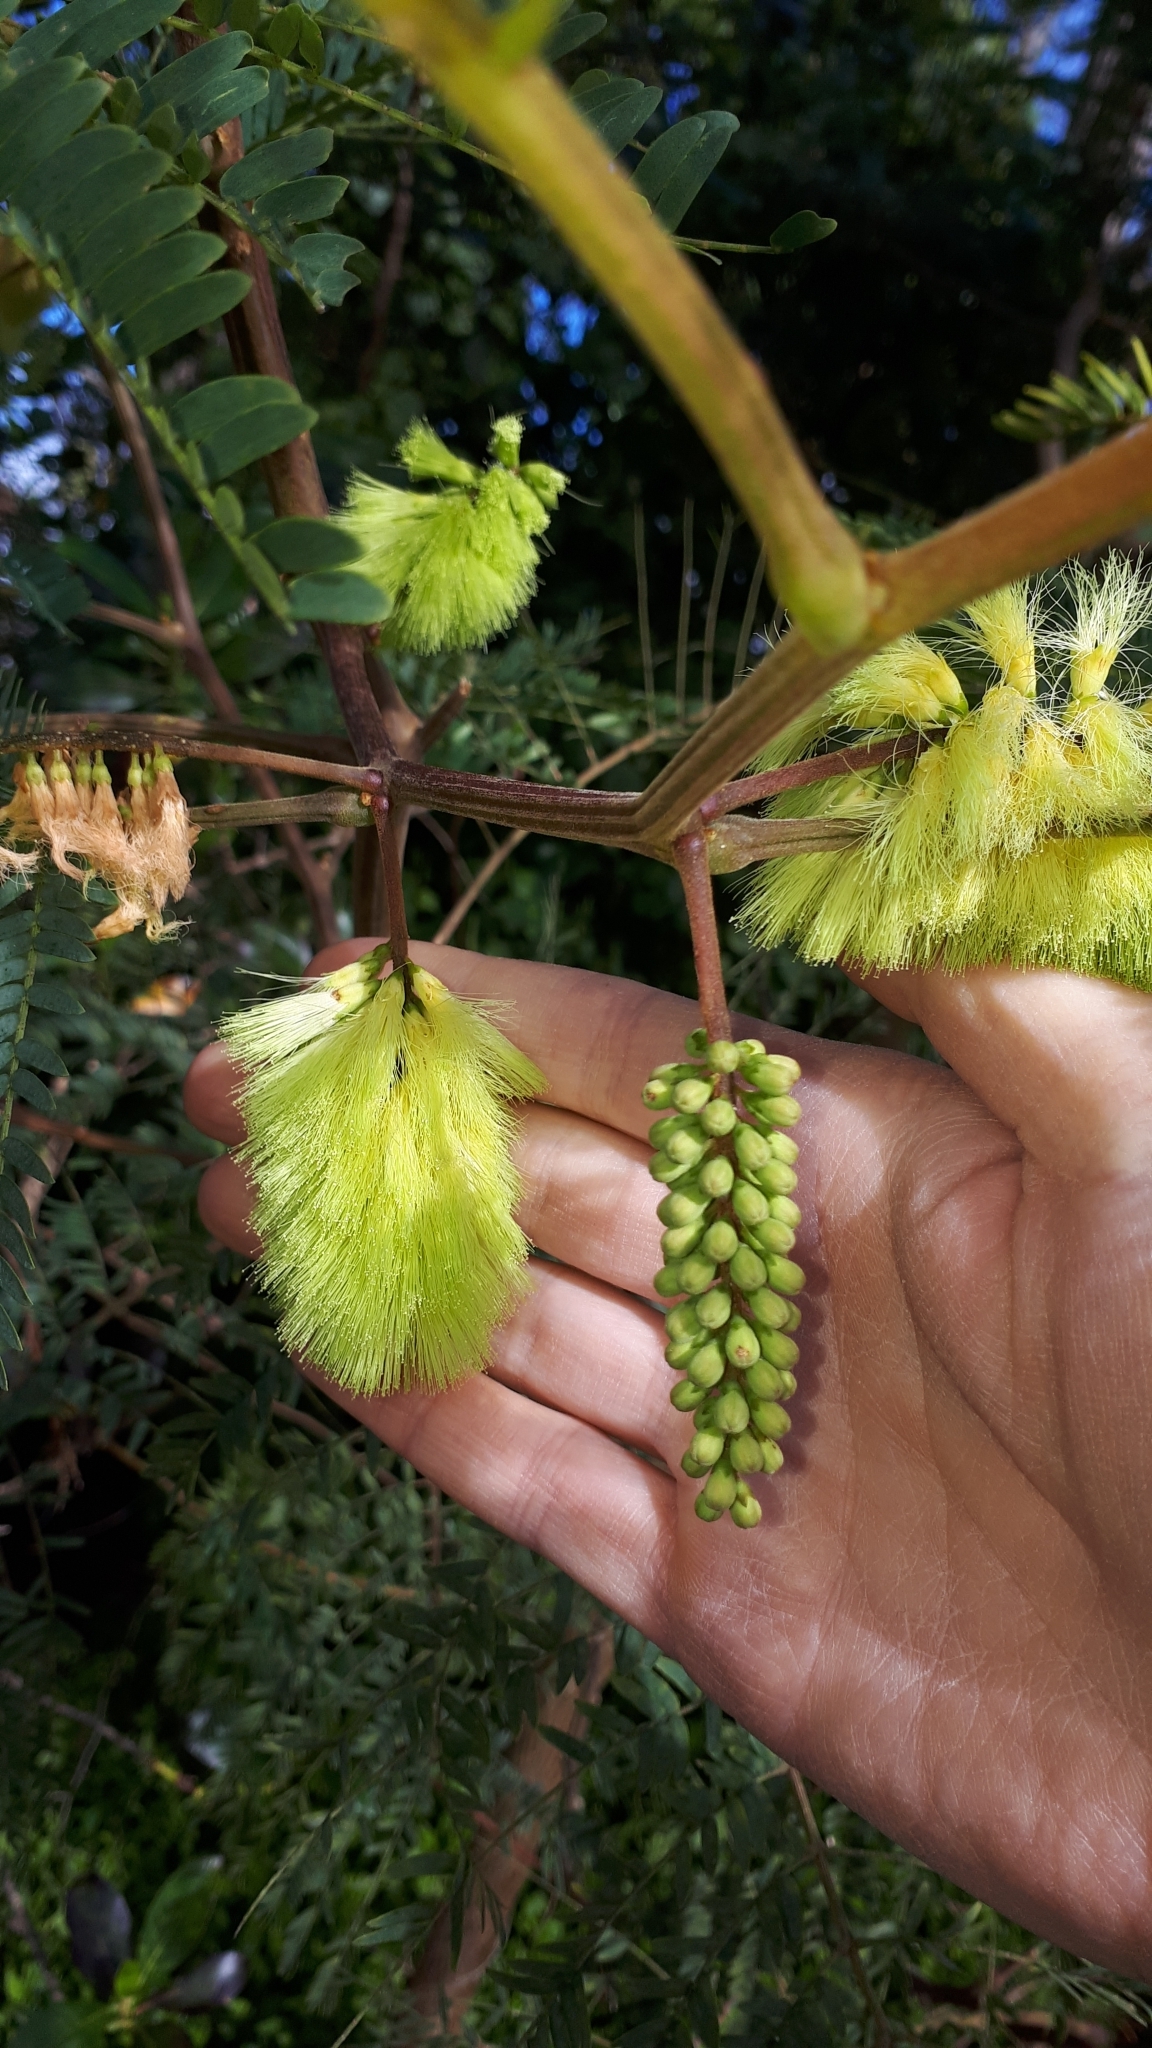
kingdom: Plantae
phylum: Tracheophyta
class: Magnoliopsida
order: Fabales
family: Fabaceae
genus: Paraserianthes
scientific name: Paraserianthes lophantha
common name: Plume albizia
